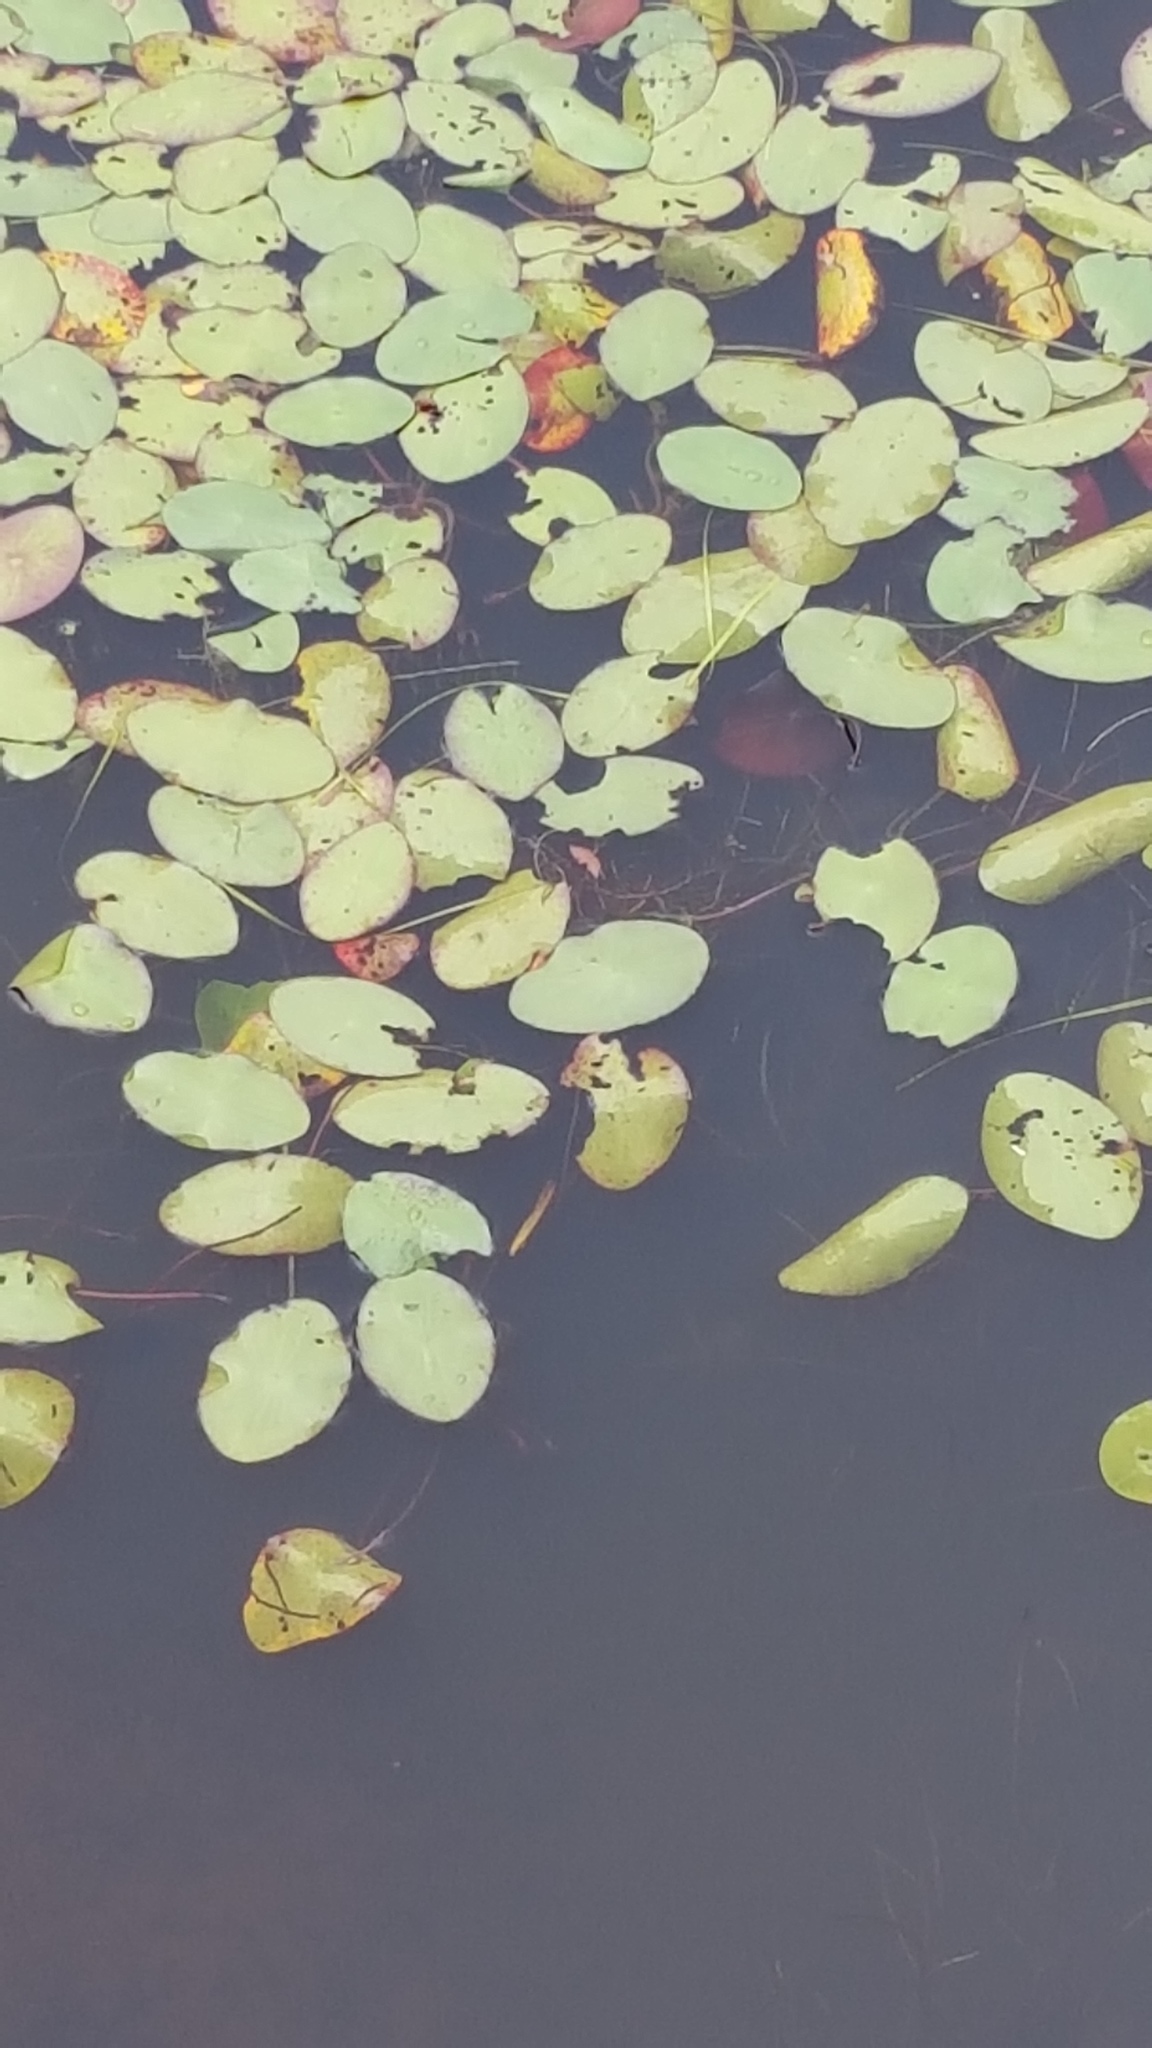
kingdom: Plantae
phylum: Tracheophyta
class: Magnoliopsida
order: Nymphaeales
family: Cabombaceae
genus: Brasenia
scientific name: Brasenia schreberi
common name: Water-shield
